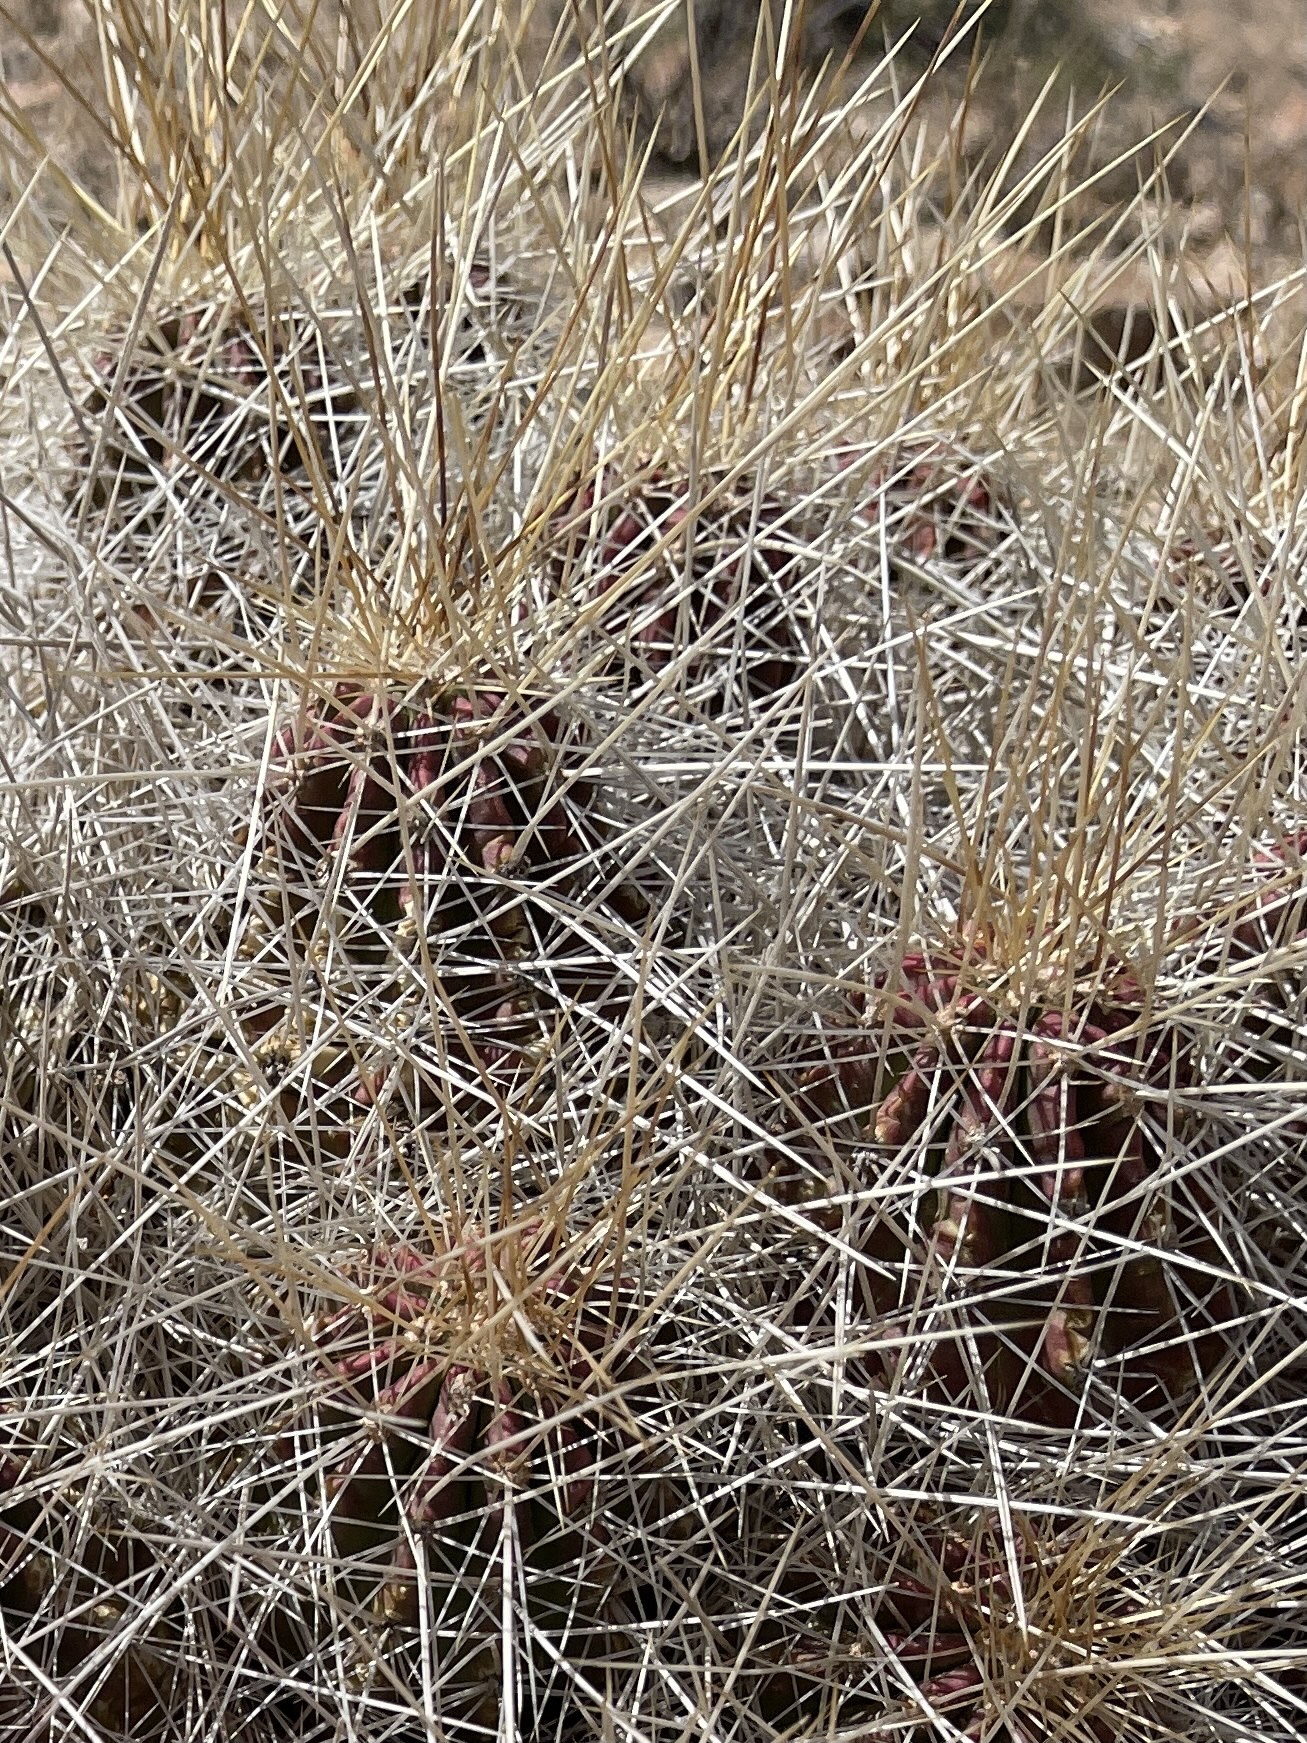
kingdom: Plantae
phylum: Tracheophyta
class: Magnoliopsida
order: Caryophyllales
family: Cactaceae
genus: Echinocereus
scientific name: Echinocereus stramineus
